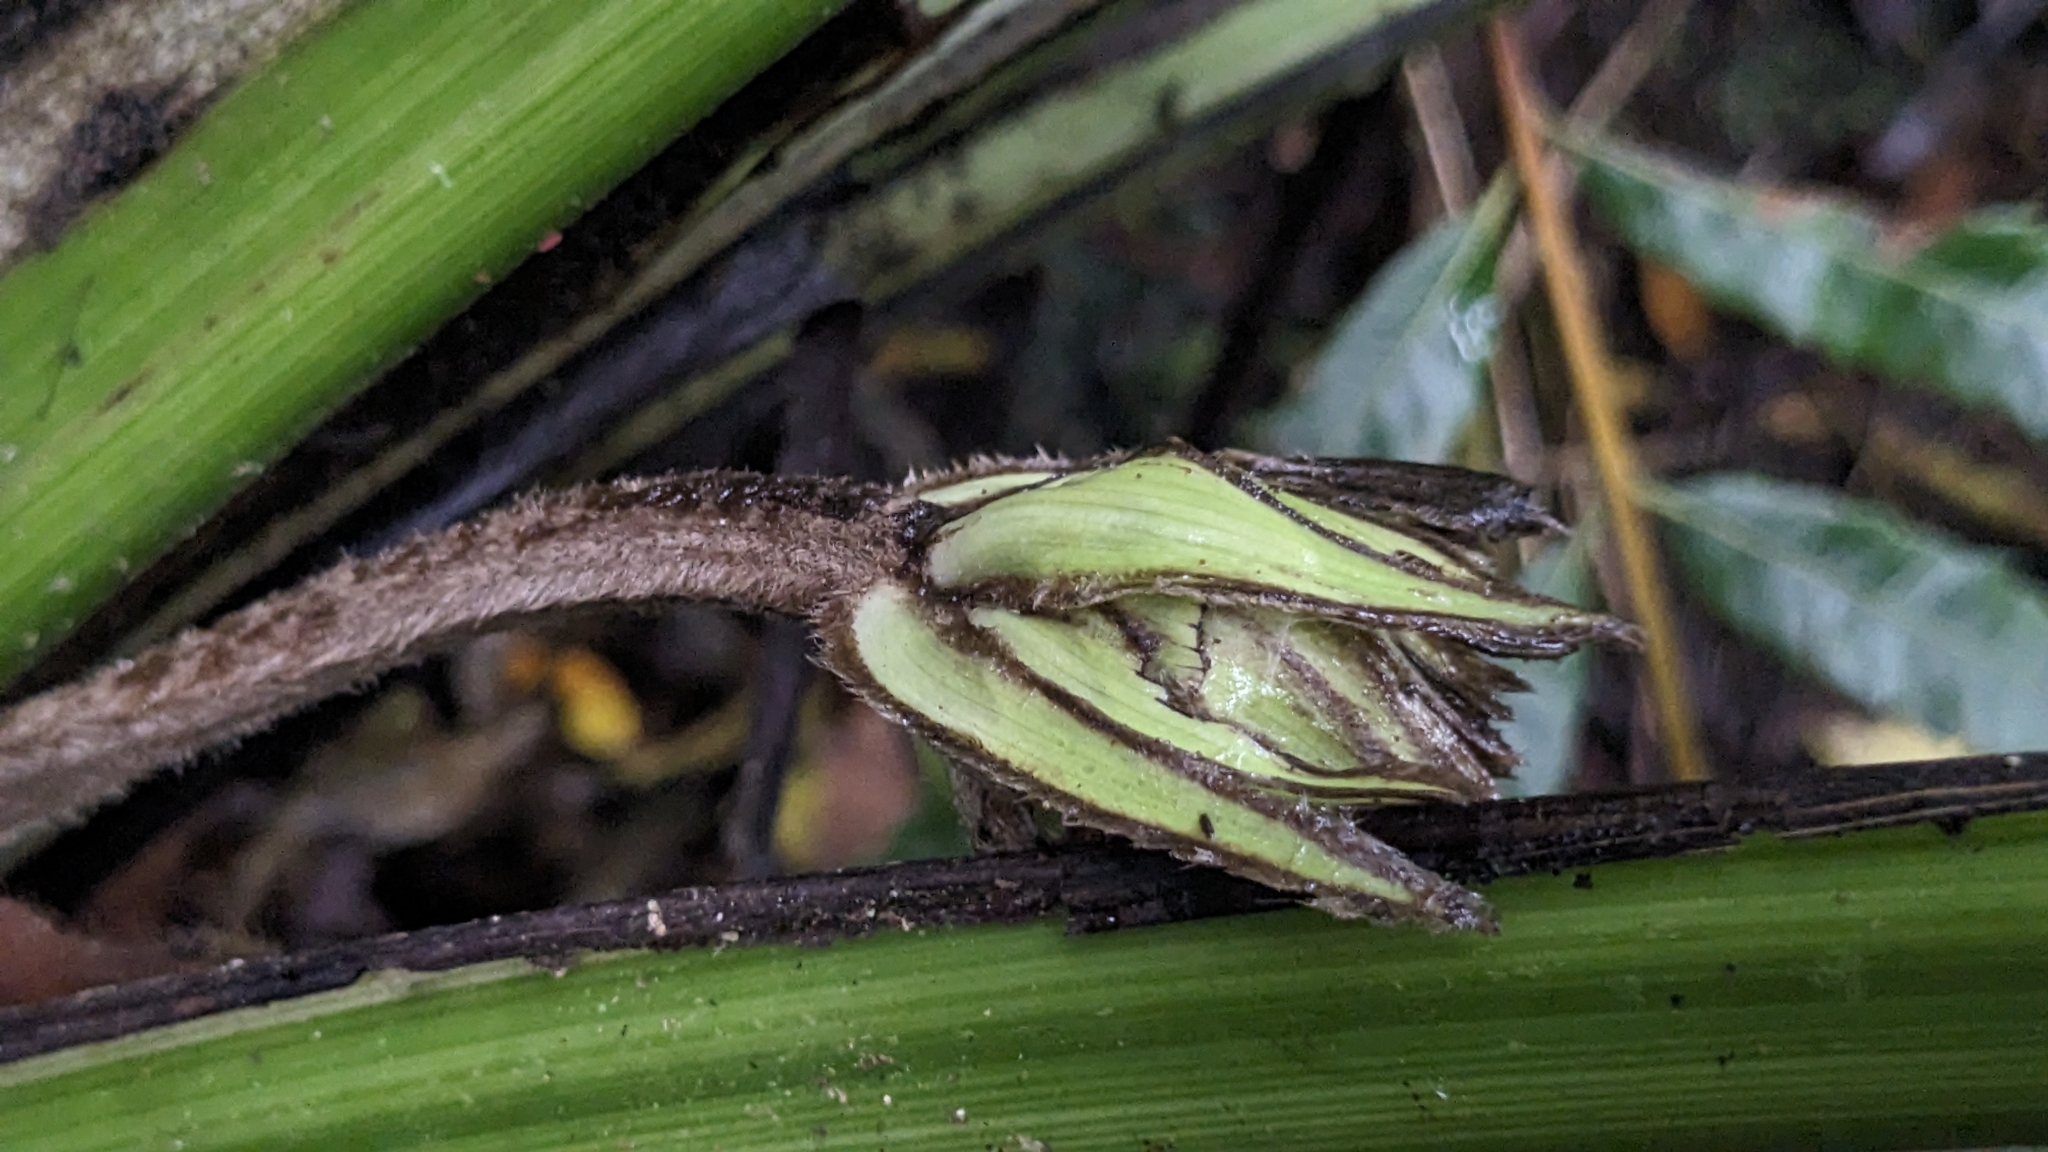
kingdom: Plantae
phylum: Tracheophyta
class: Liliopsida
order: Asparagales
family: Hypoxidaceae
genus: Curculigo
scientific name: Curculigo capitulata
